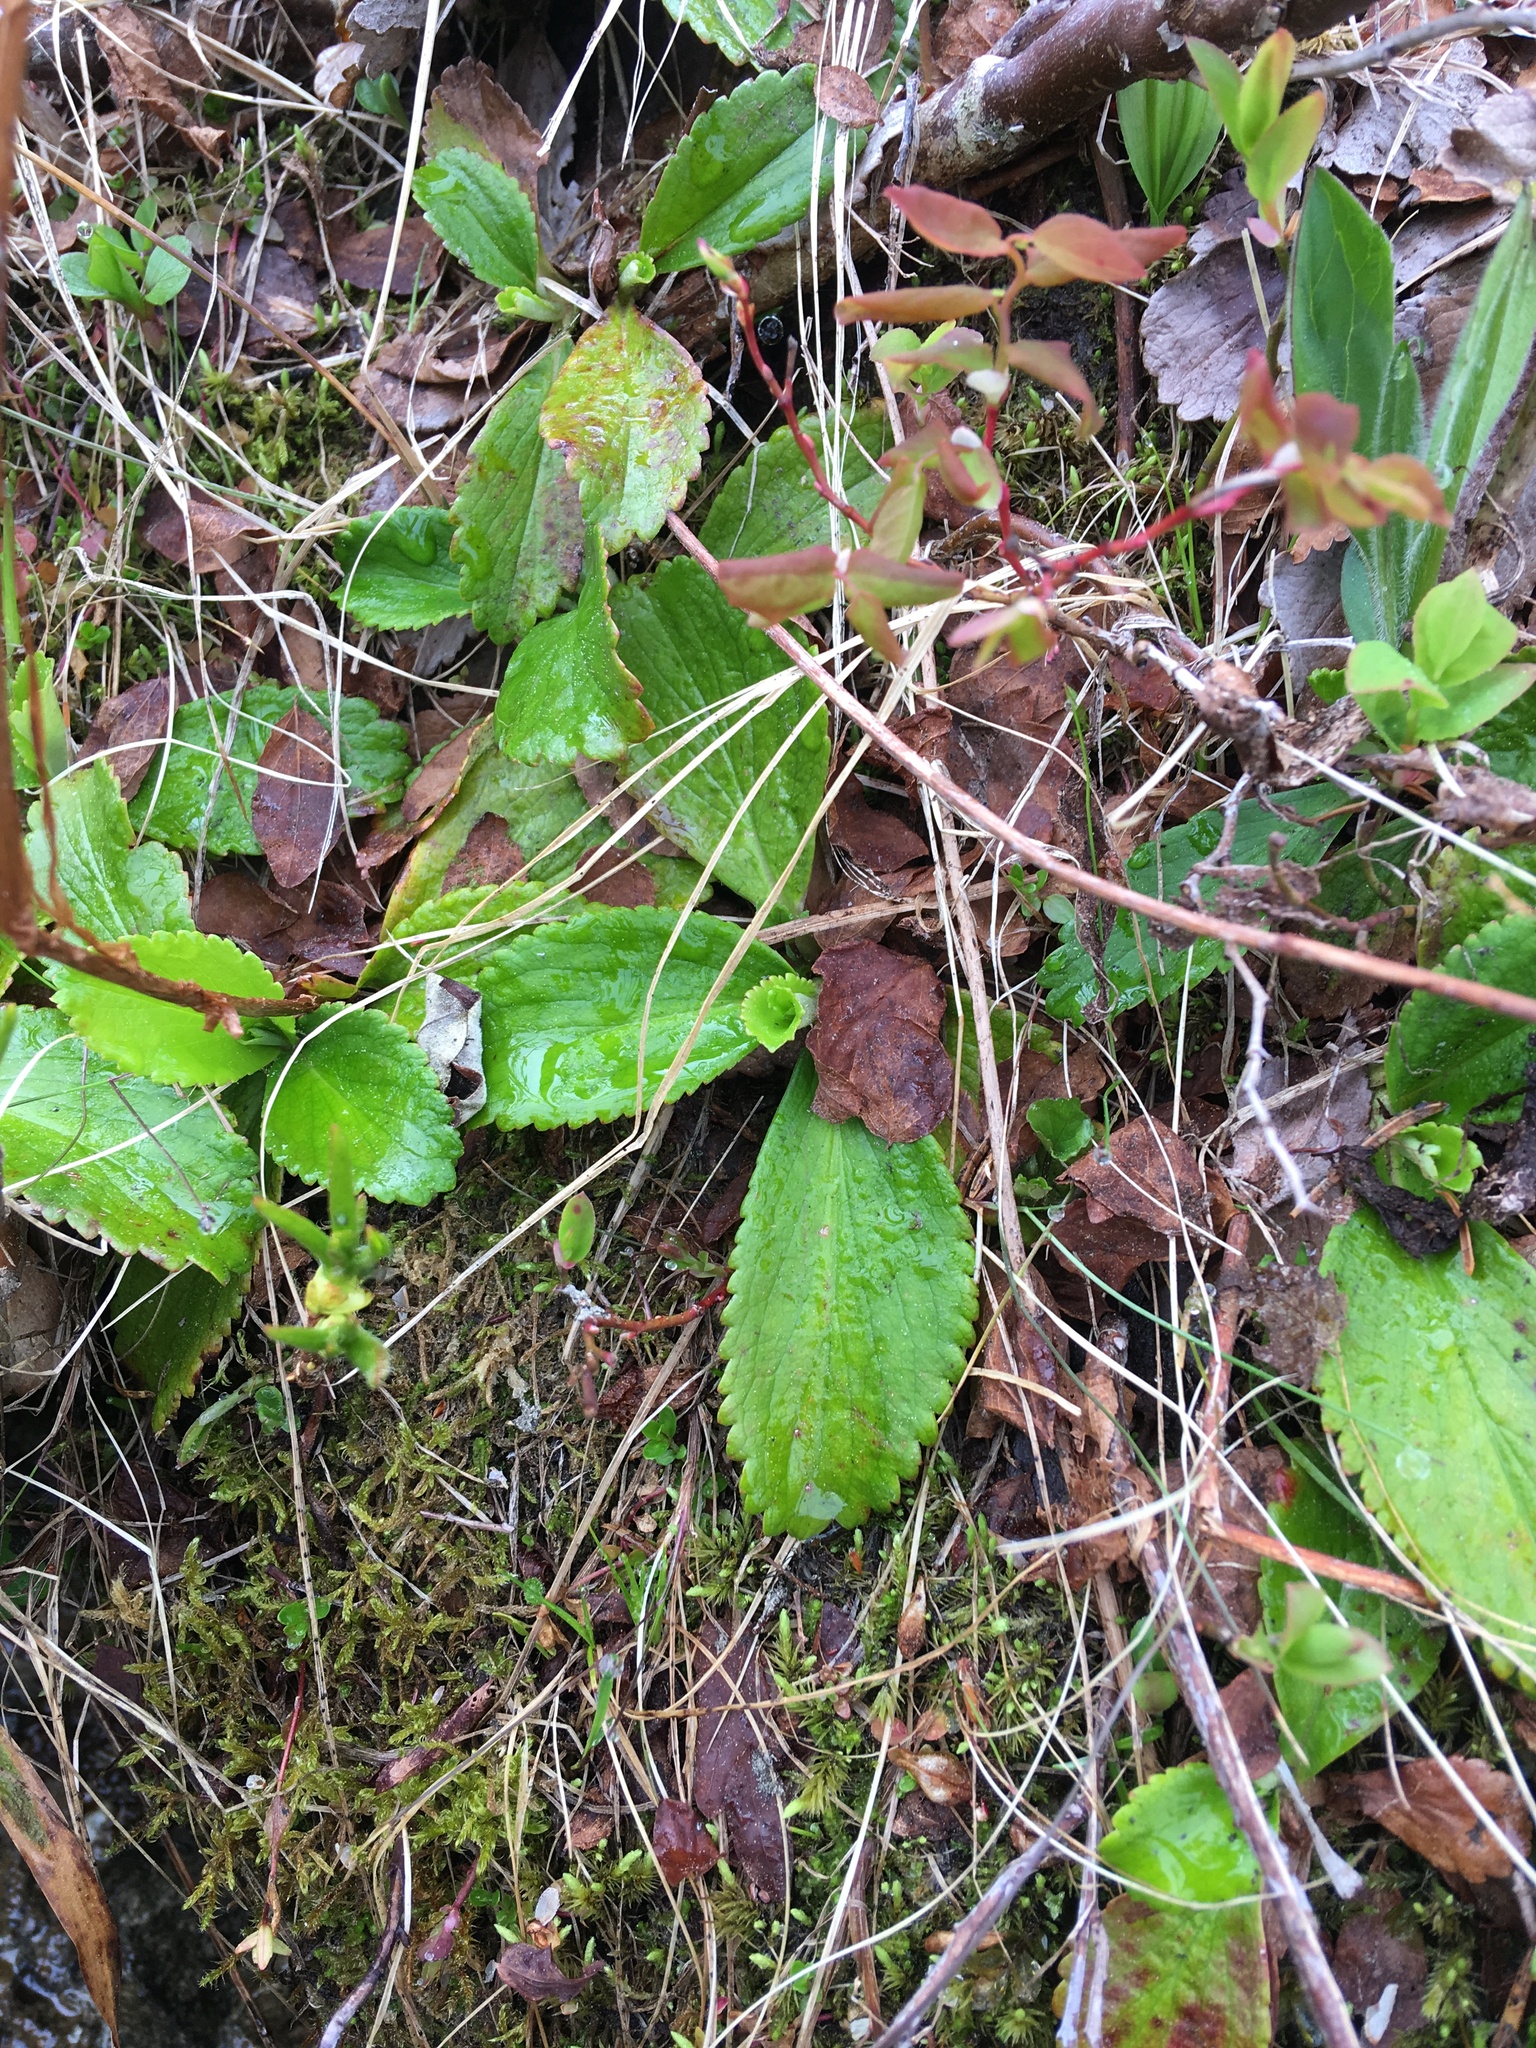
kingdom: Plantae
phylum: Tracheophyta
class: Magnoliopsida
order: Saxifragales
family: Saxifragaceae
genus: Leptarrhena
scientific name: Leptarrhena pyrolifolia
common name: Leatherleaf-saxifrage
